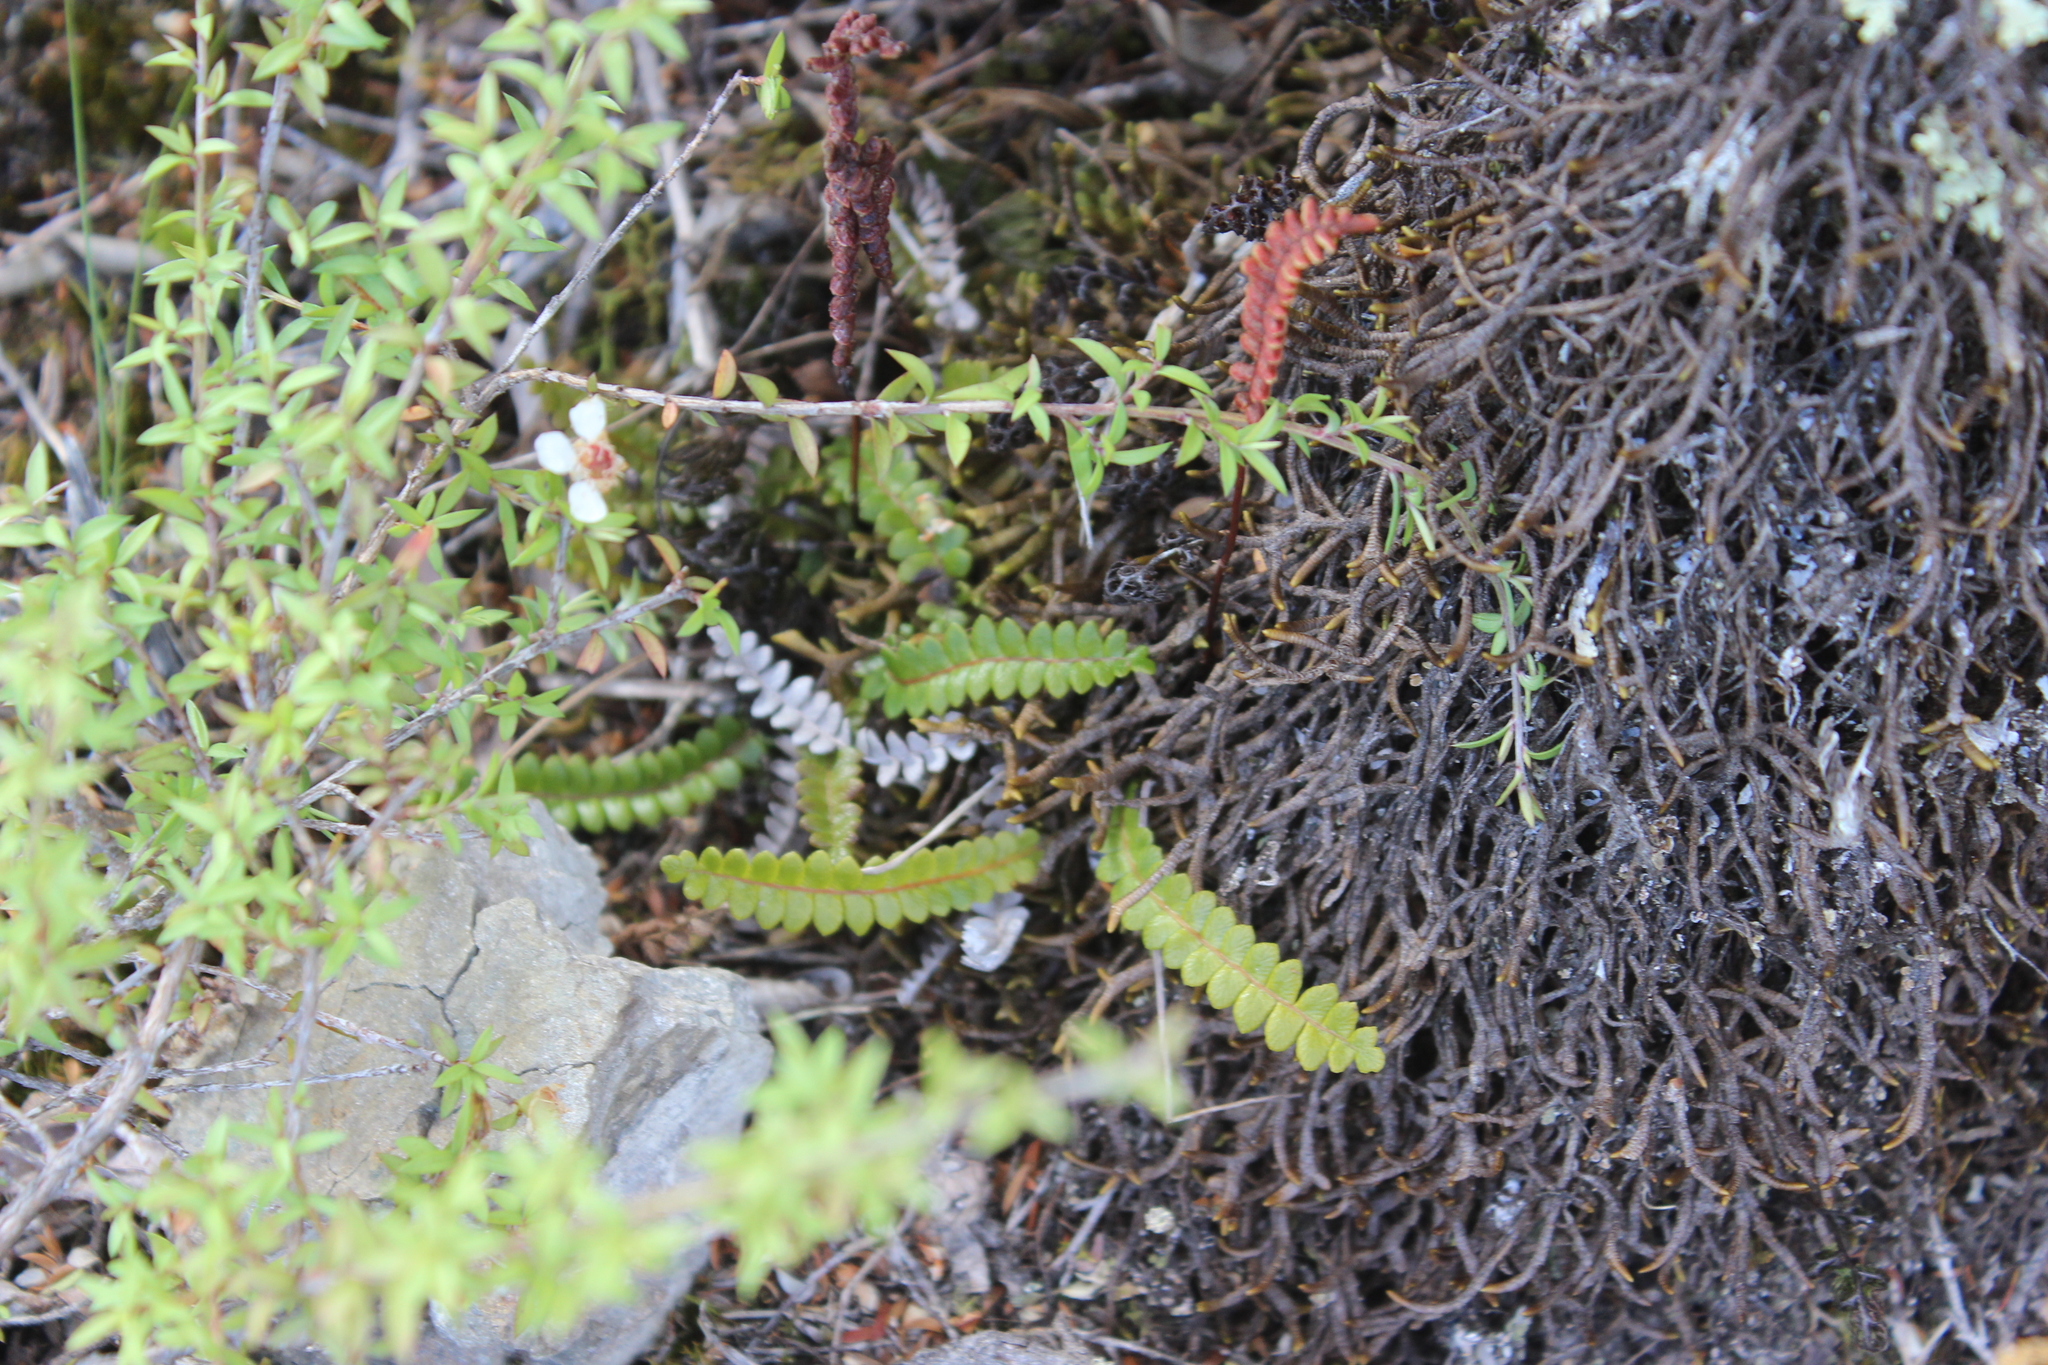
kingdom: Plantae
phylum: Tracheophyta
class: Polypodiopsida
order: Polypodiales
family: Blechnaceae
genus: Austroblechnum
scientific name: Austroblechnum penna-marina
